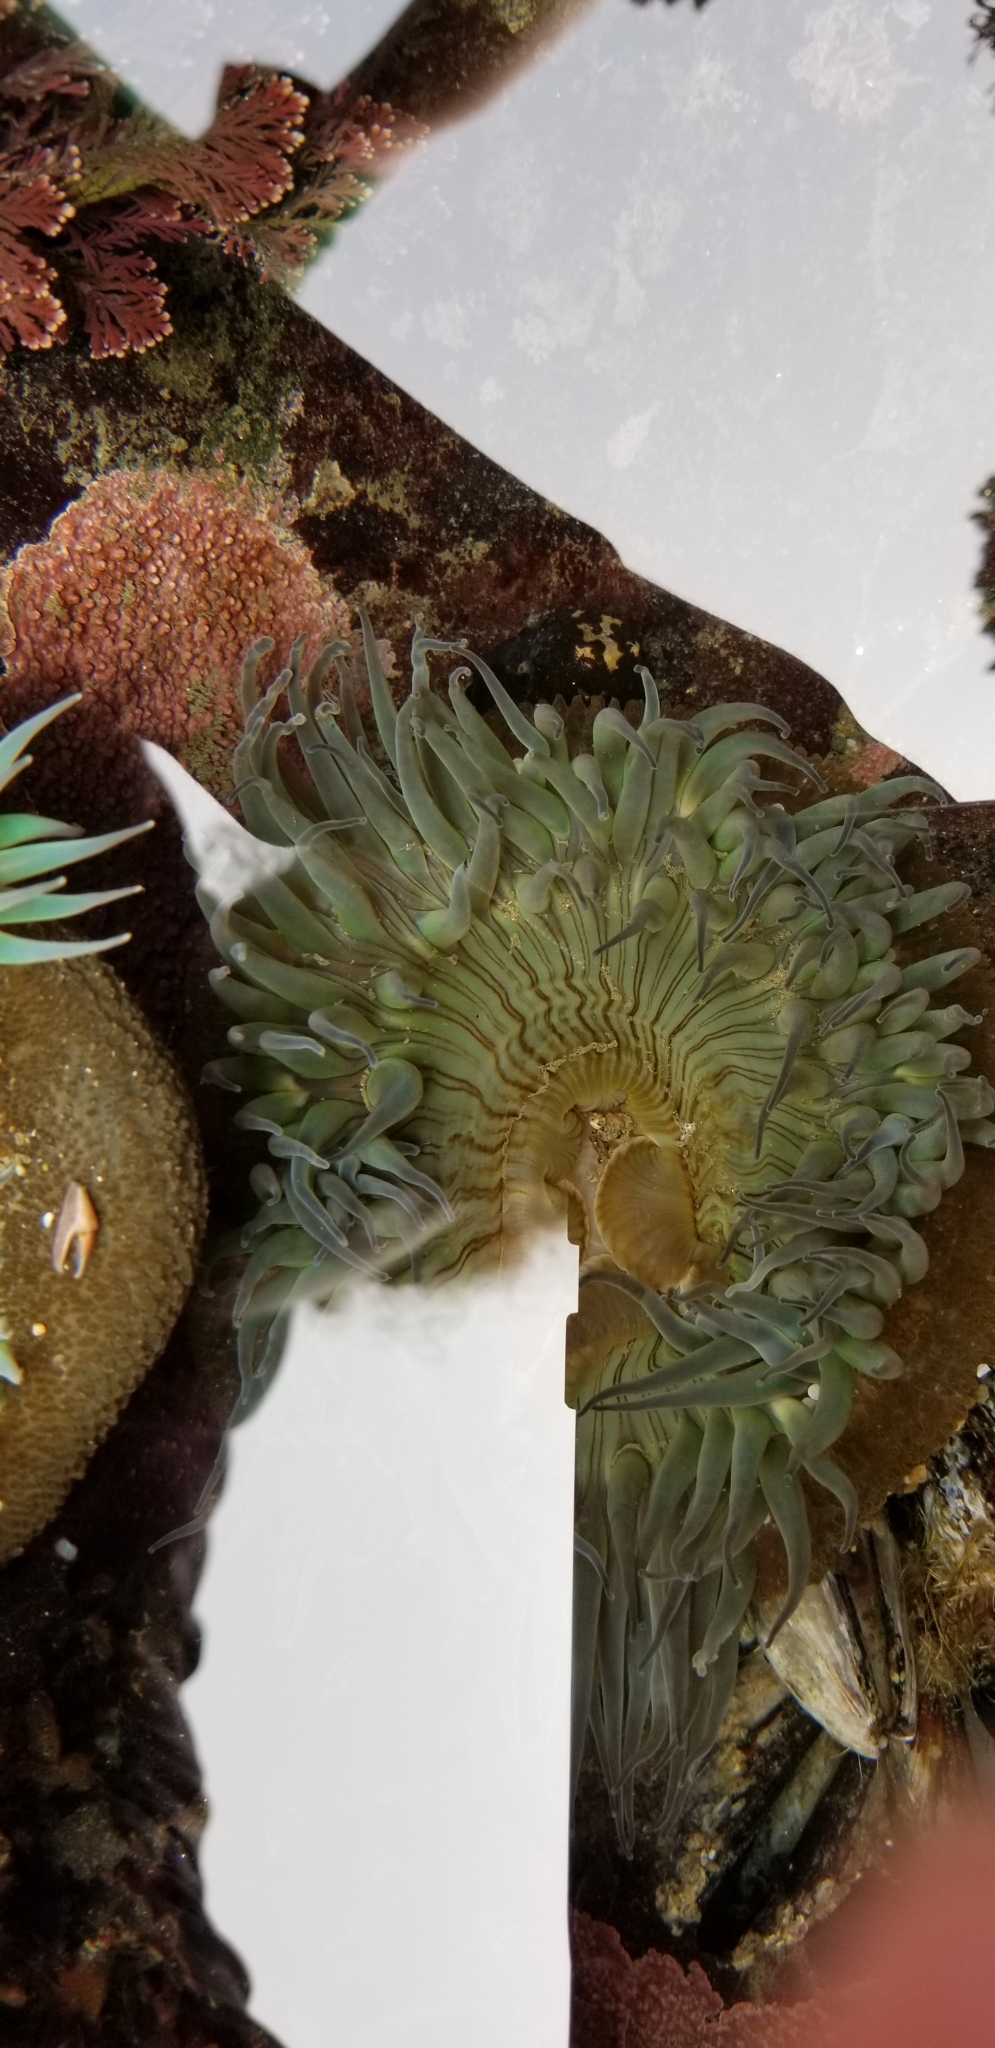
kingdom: Animalia
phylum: Cnidaria
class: Anthozoa
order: Actiniaria
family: Actiniidae
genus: Anthopleura
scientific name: Anthopleura sola
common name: Sun anemone
